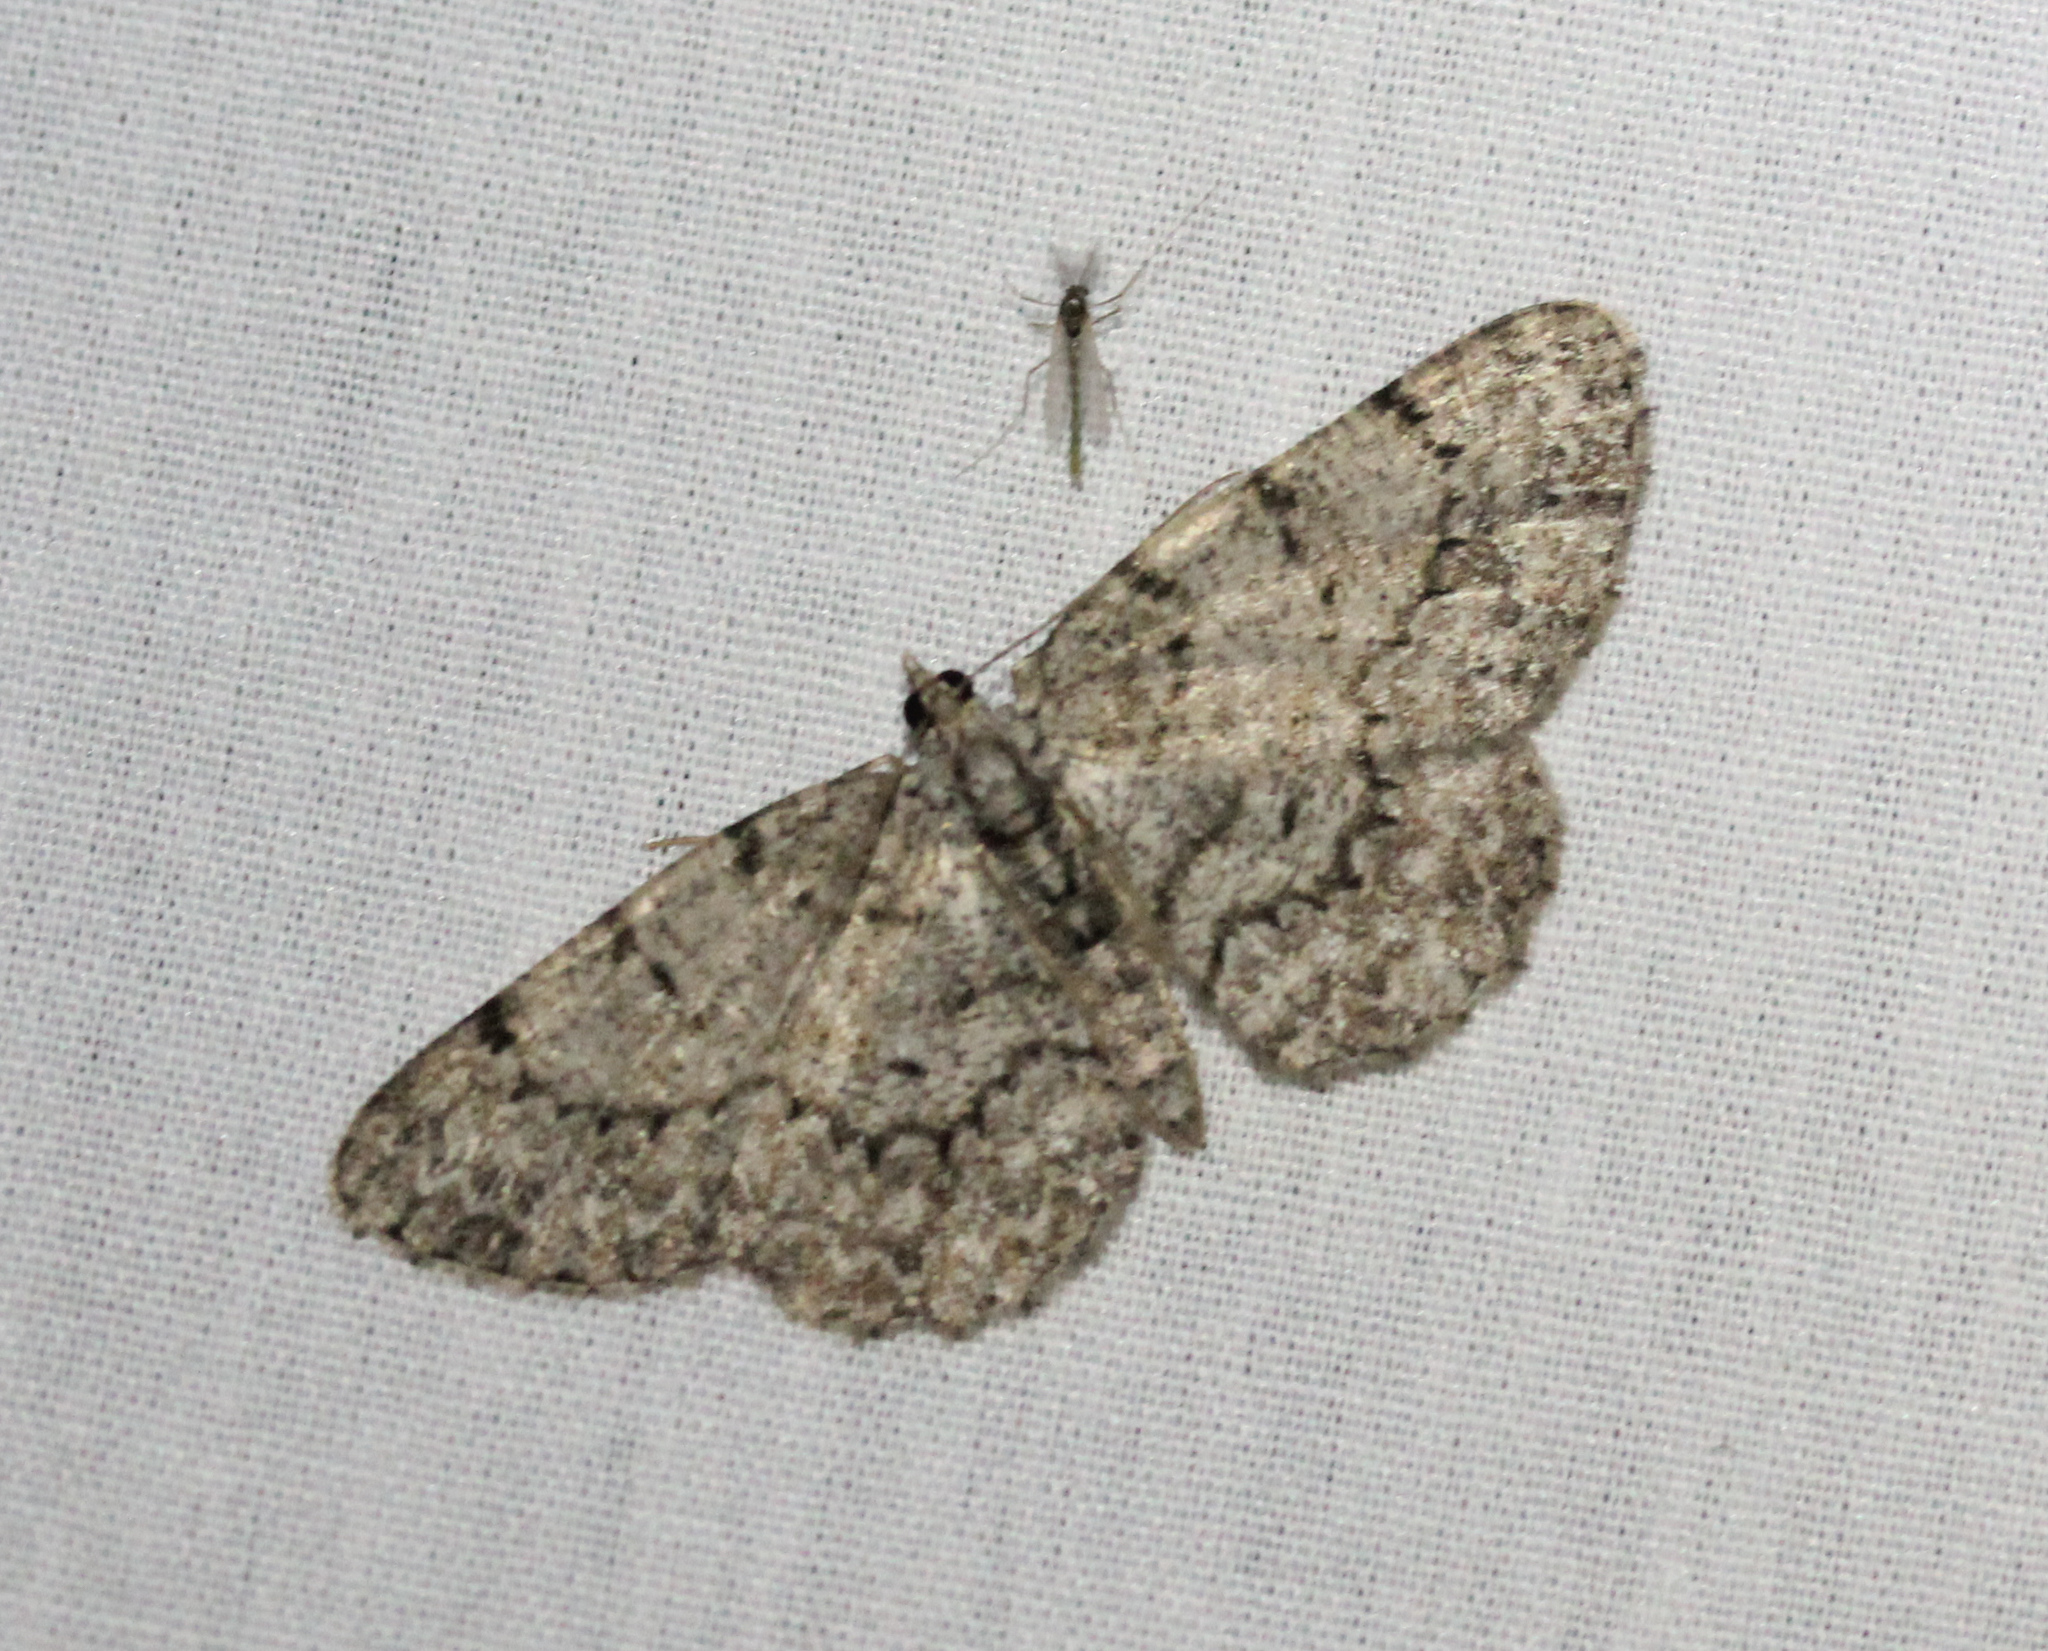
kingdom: Animalia
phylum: Arthropoda
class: Insecta
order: Lepidoptera
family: Geometridae
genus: Protoboarmia
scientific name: Protoboarmia porcelaria
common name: Porcelain gray
